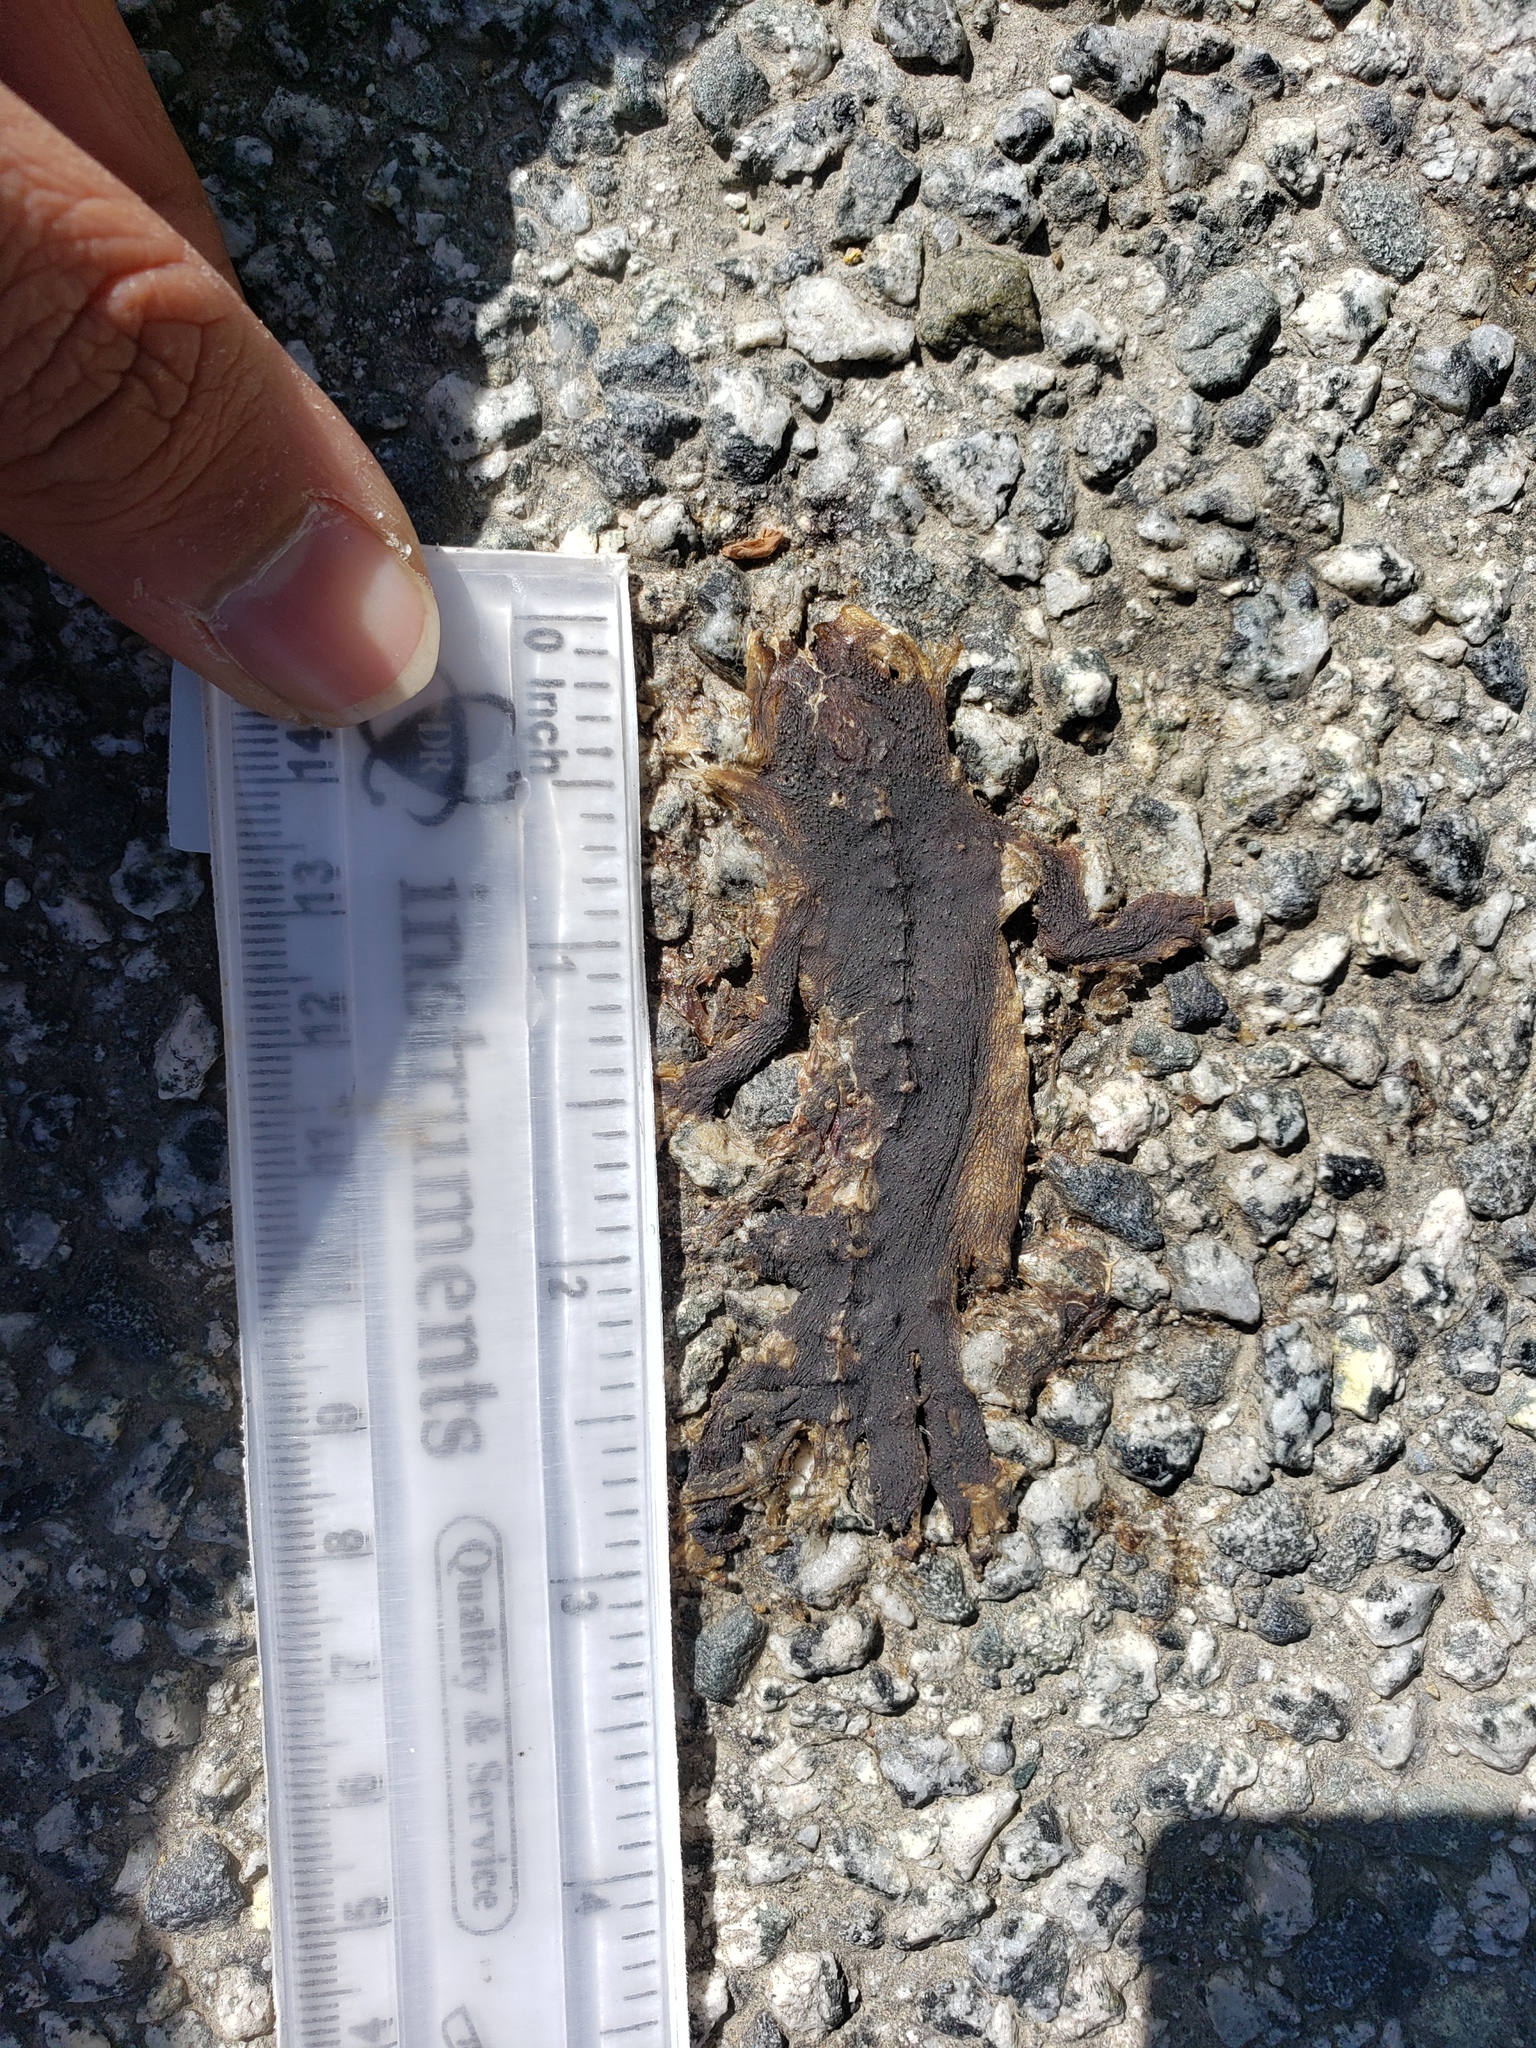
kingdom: Animalia
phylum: Chordata
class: Amphibia
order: Caudata
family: Salamandridae
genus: Taricha
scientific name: Taricha
